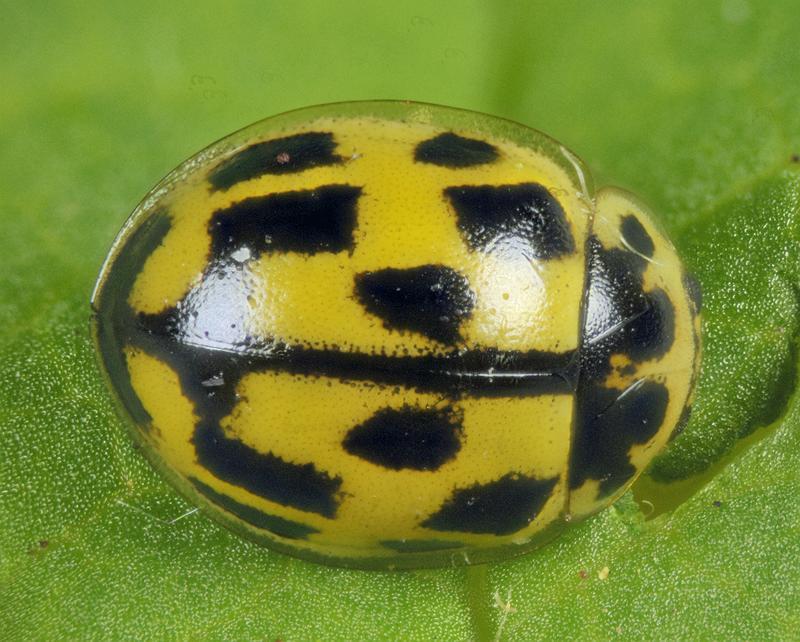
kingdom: Animalia
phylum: Arthropoda
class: Insecta
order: Coleoptera
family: Coccinellidae
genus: Propylaea
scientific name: Propylaea quatuordecimpunctata
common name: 14-spotted ladybird beetle
